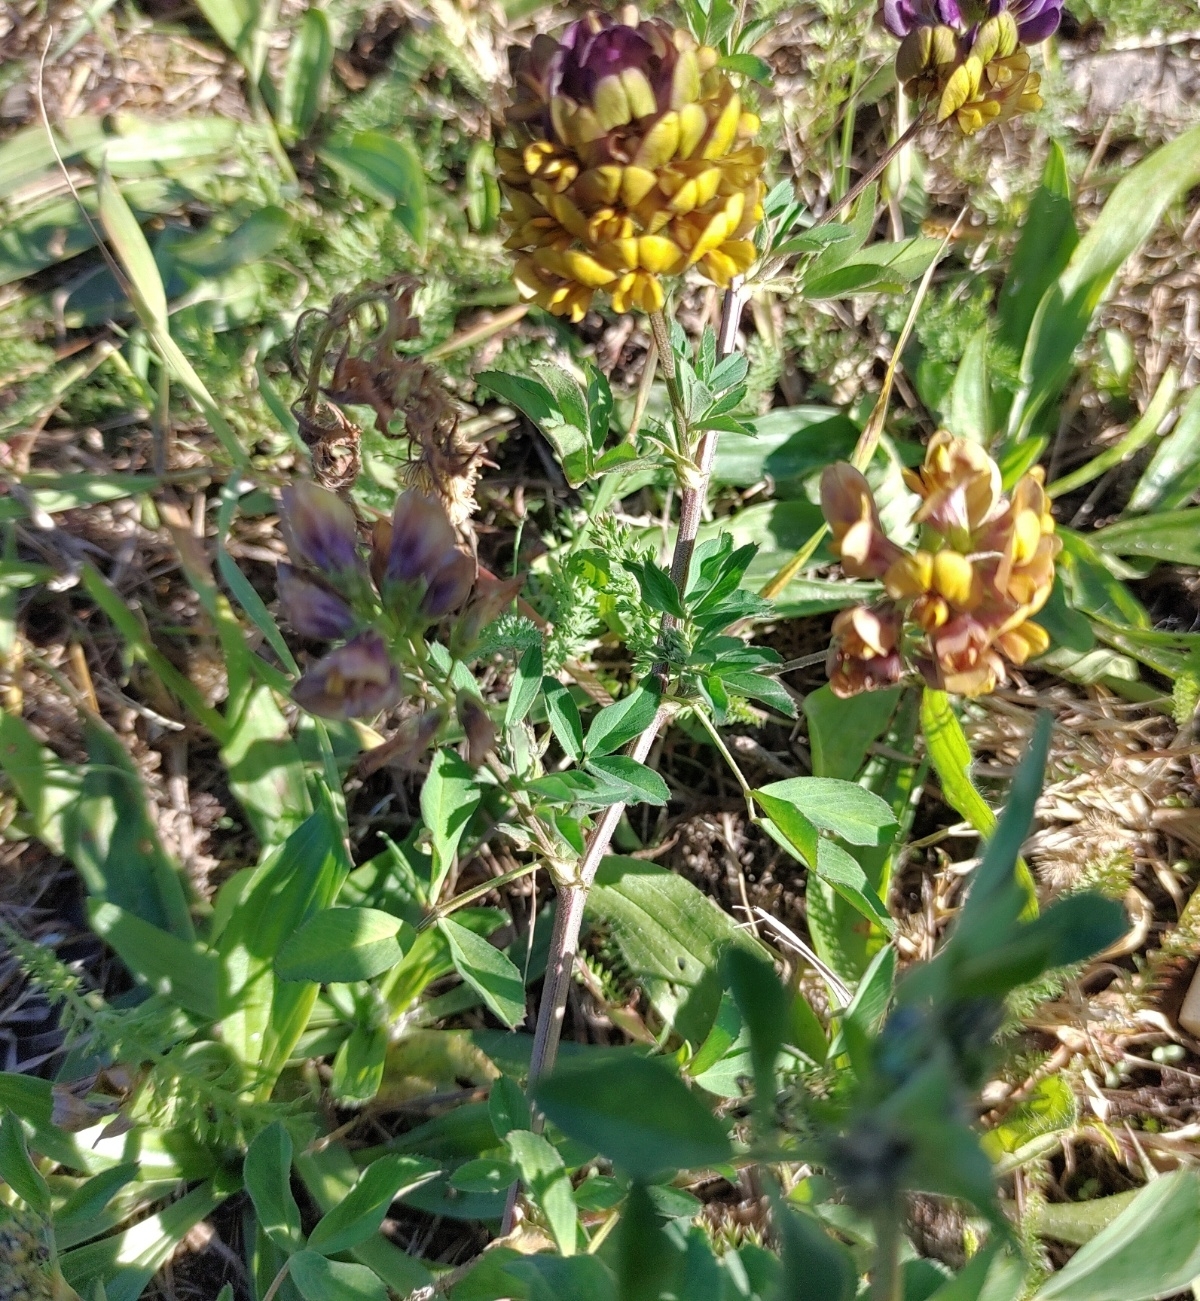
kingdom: Plantae
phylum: Tracheophyta
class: Magnoliopsida
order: Fabales
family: Fabaceae
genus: Medicago
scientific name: Medicago varia
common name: Sand lucerne
